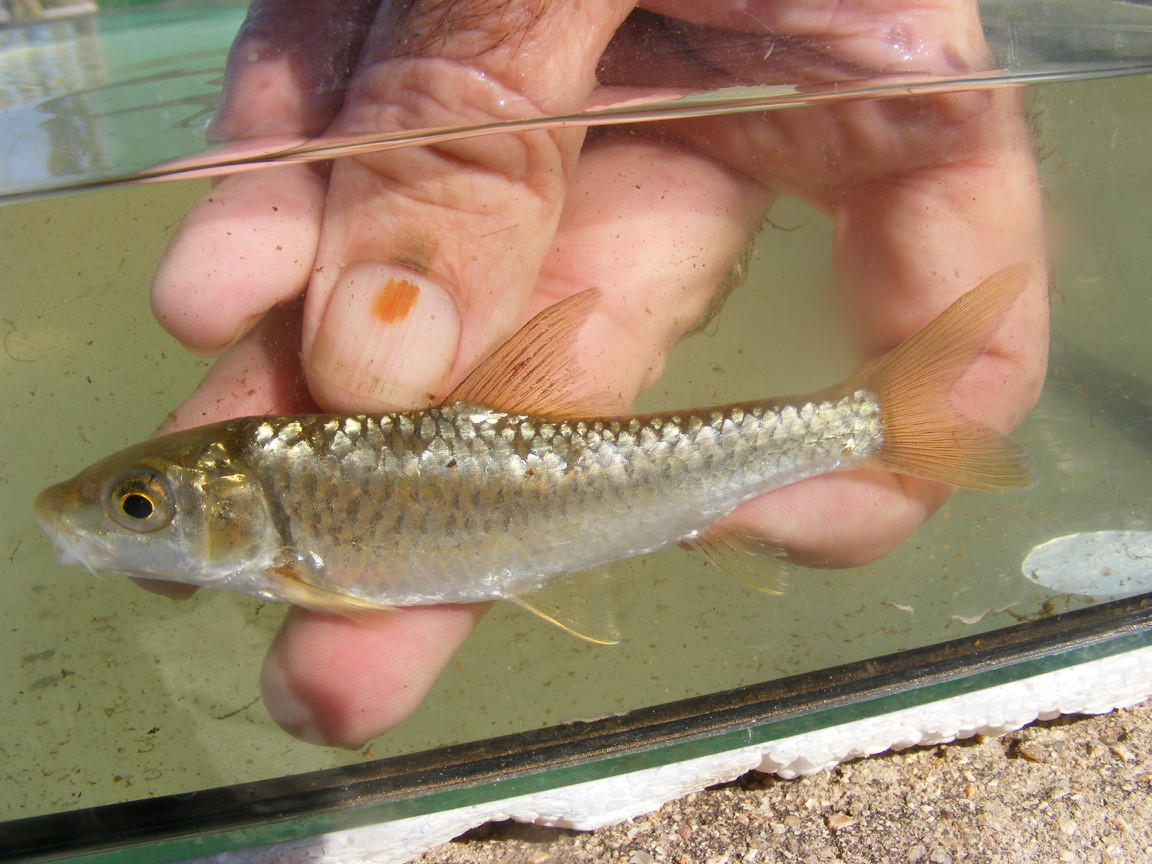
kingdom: Animalia
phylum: Chordata
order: Cypriniformes
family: Cyprinidae
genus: Labeobarbus
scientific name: Labeobarbus marequensis
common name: Largescale yellowfish
